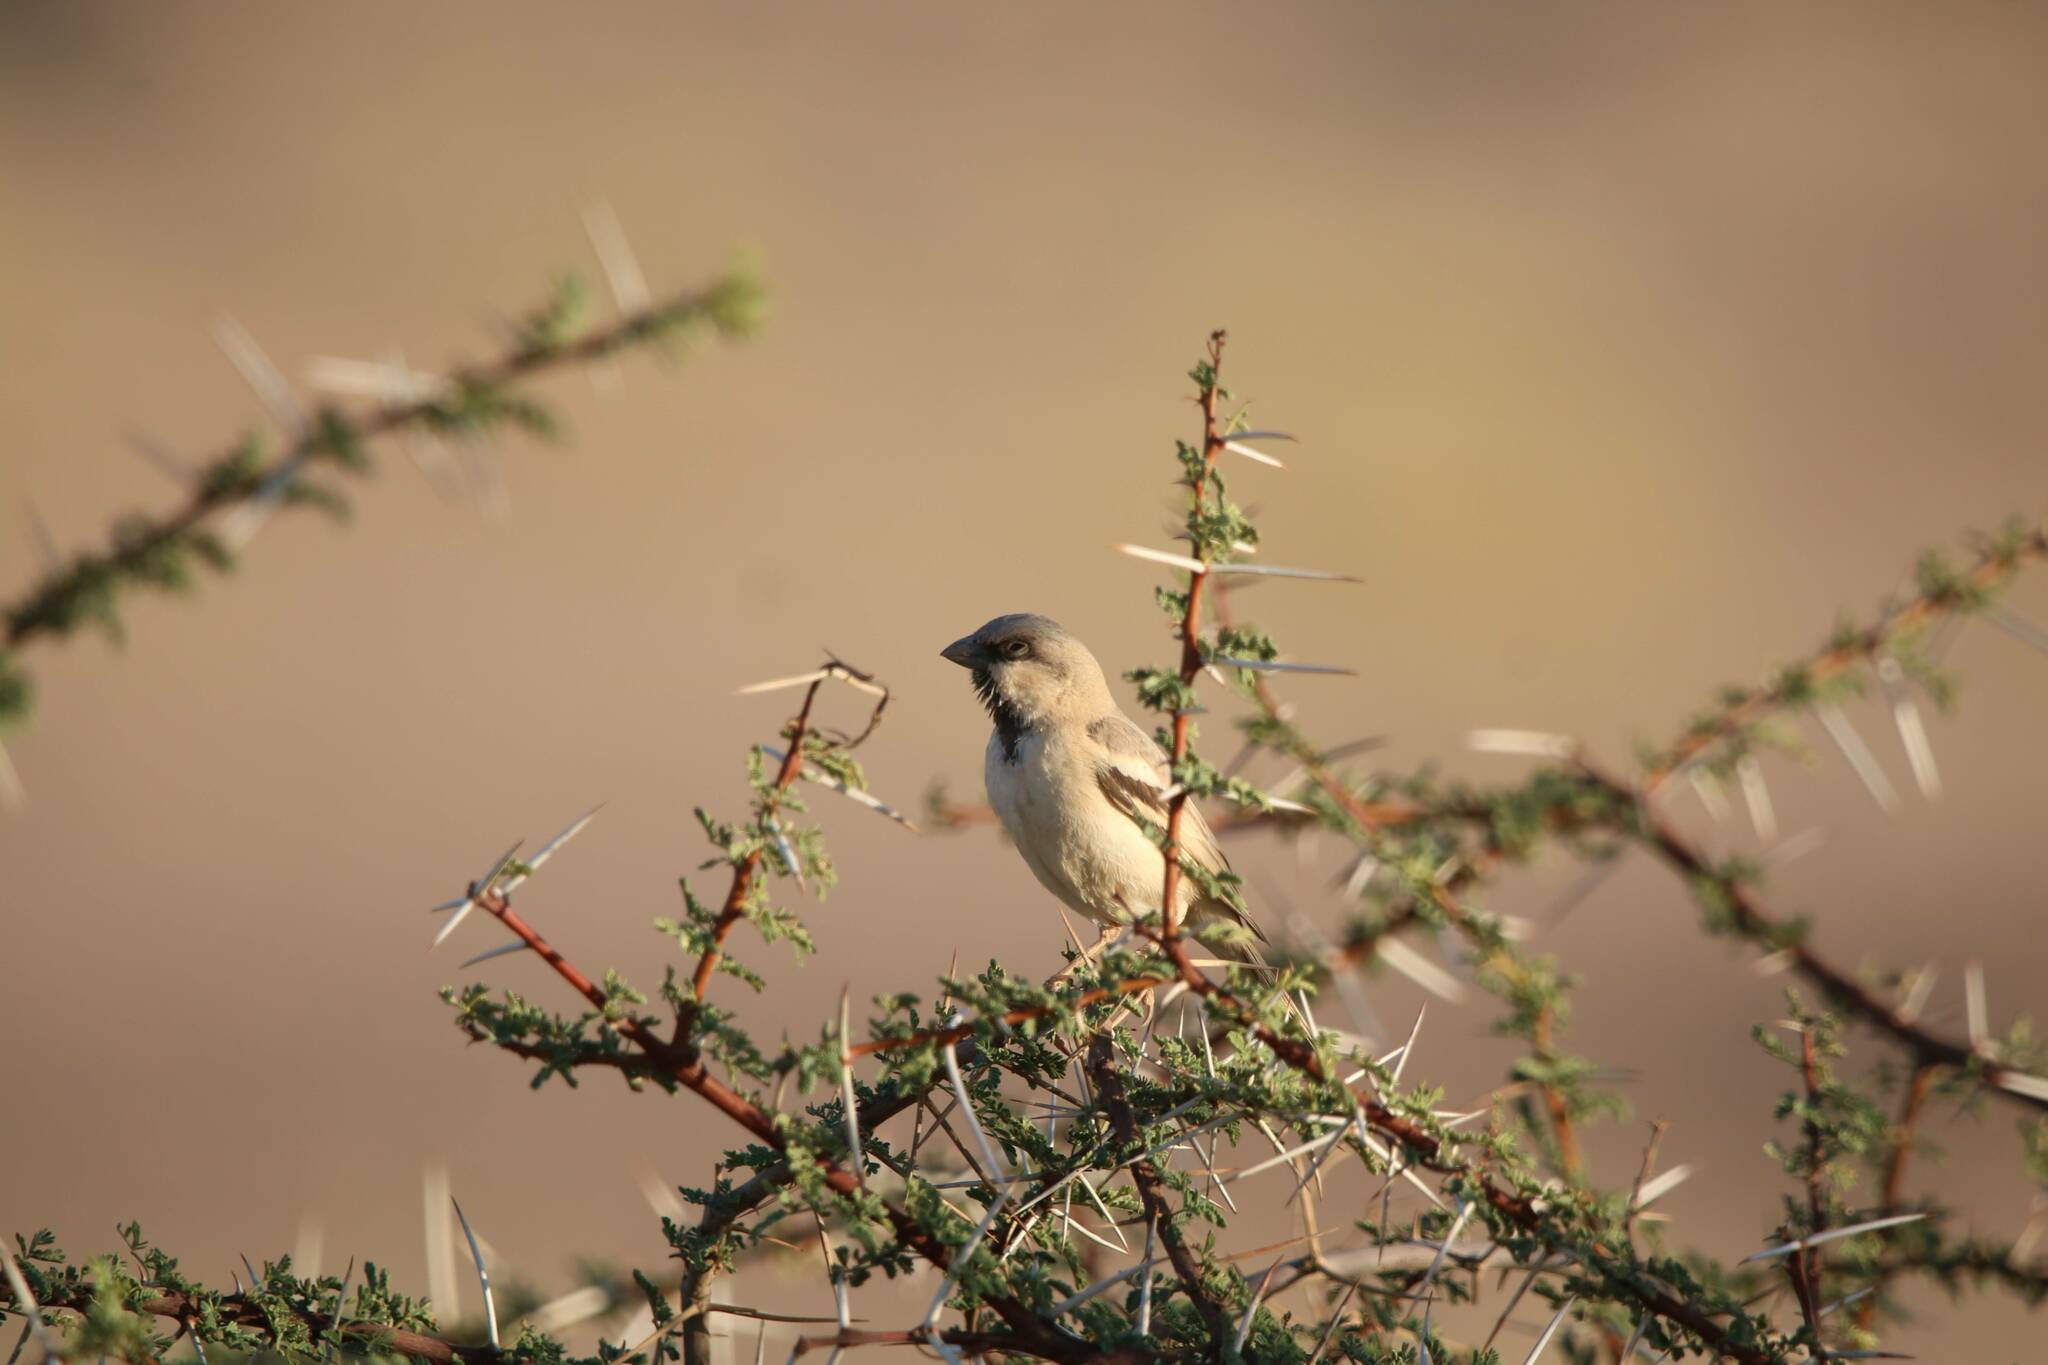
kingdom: Animalia
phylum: Chordata
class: Aves
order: Passeriformes
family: Passeridae
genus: Passer
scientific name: Passer simplex
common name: Desert sparrow
